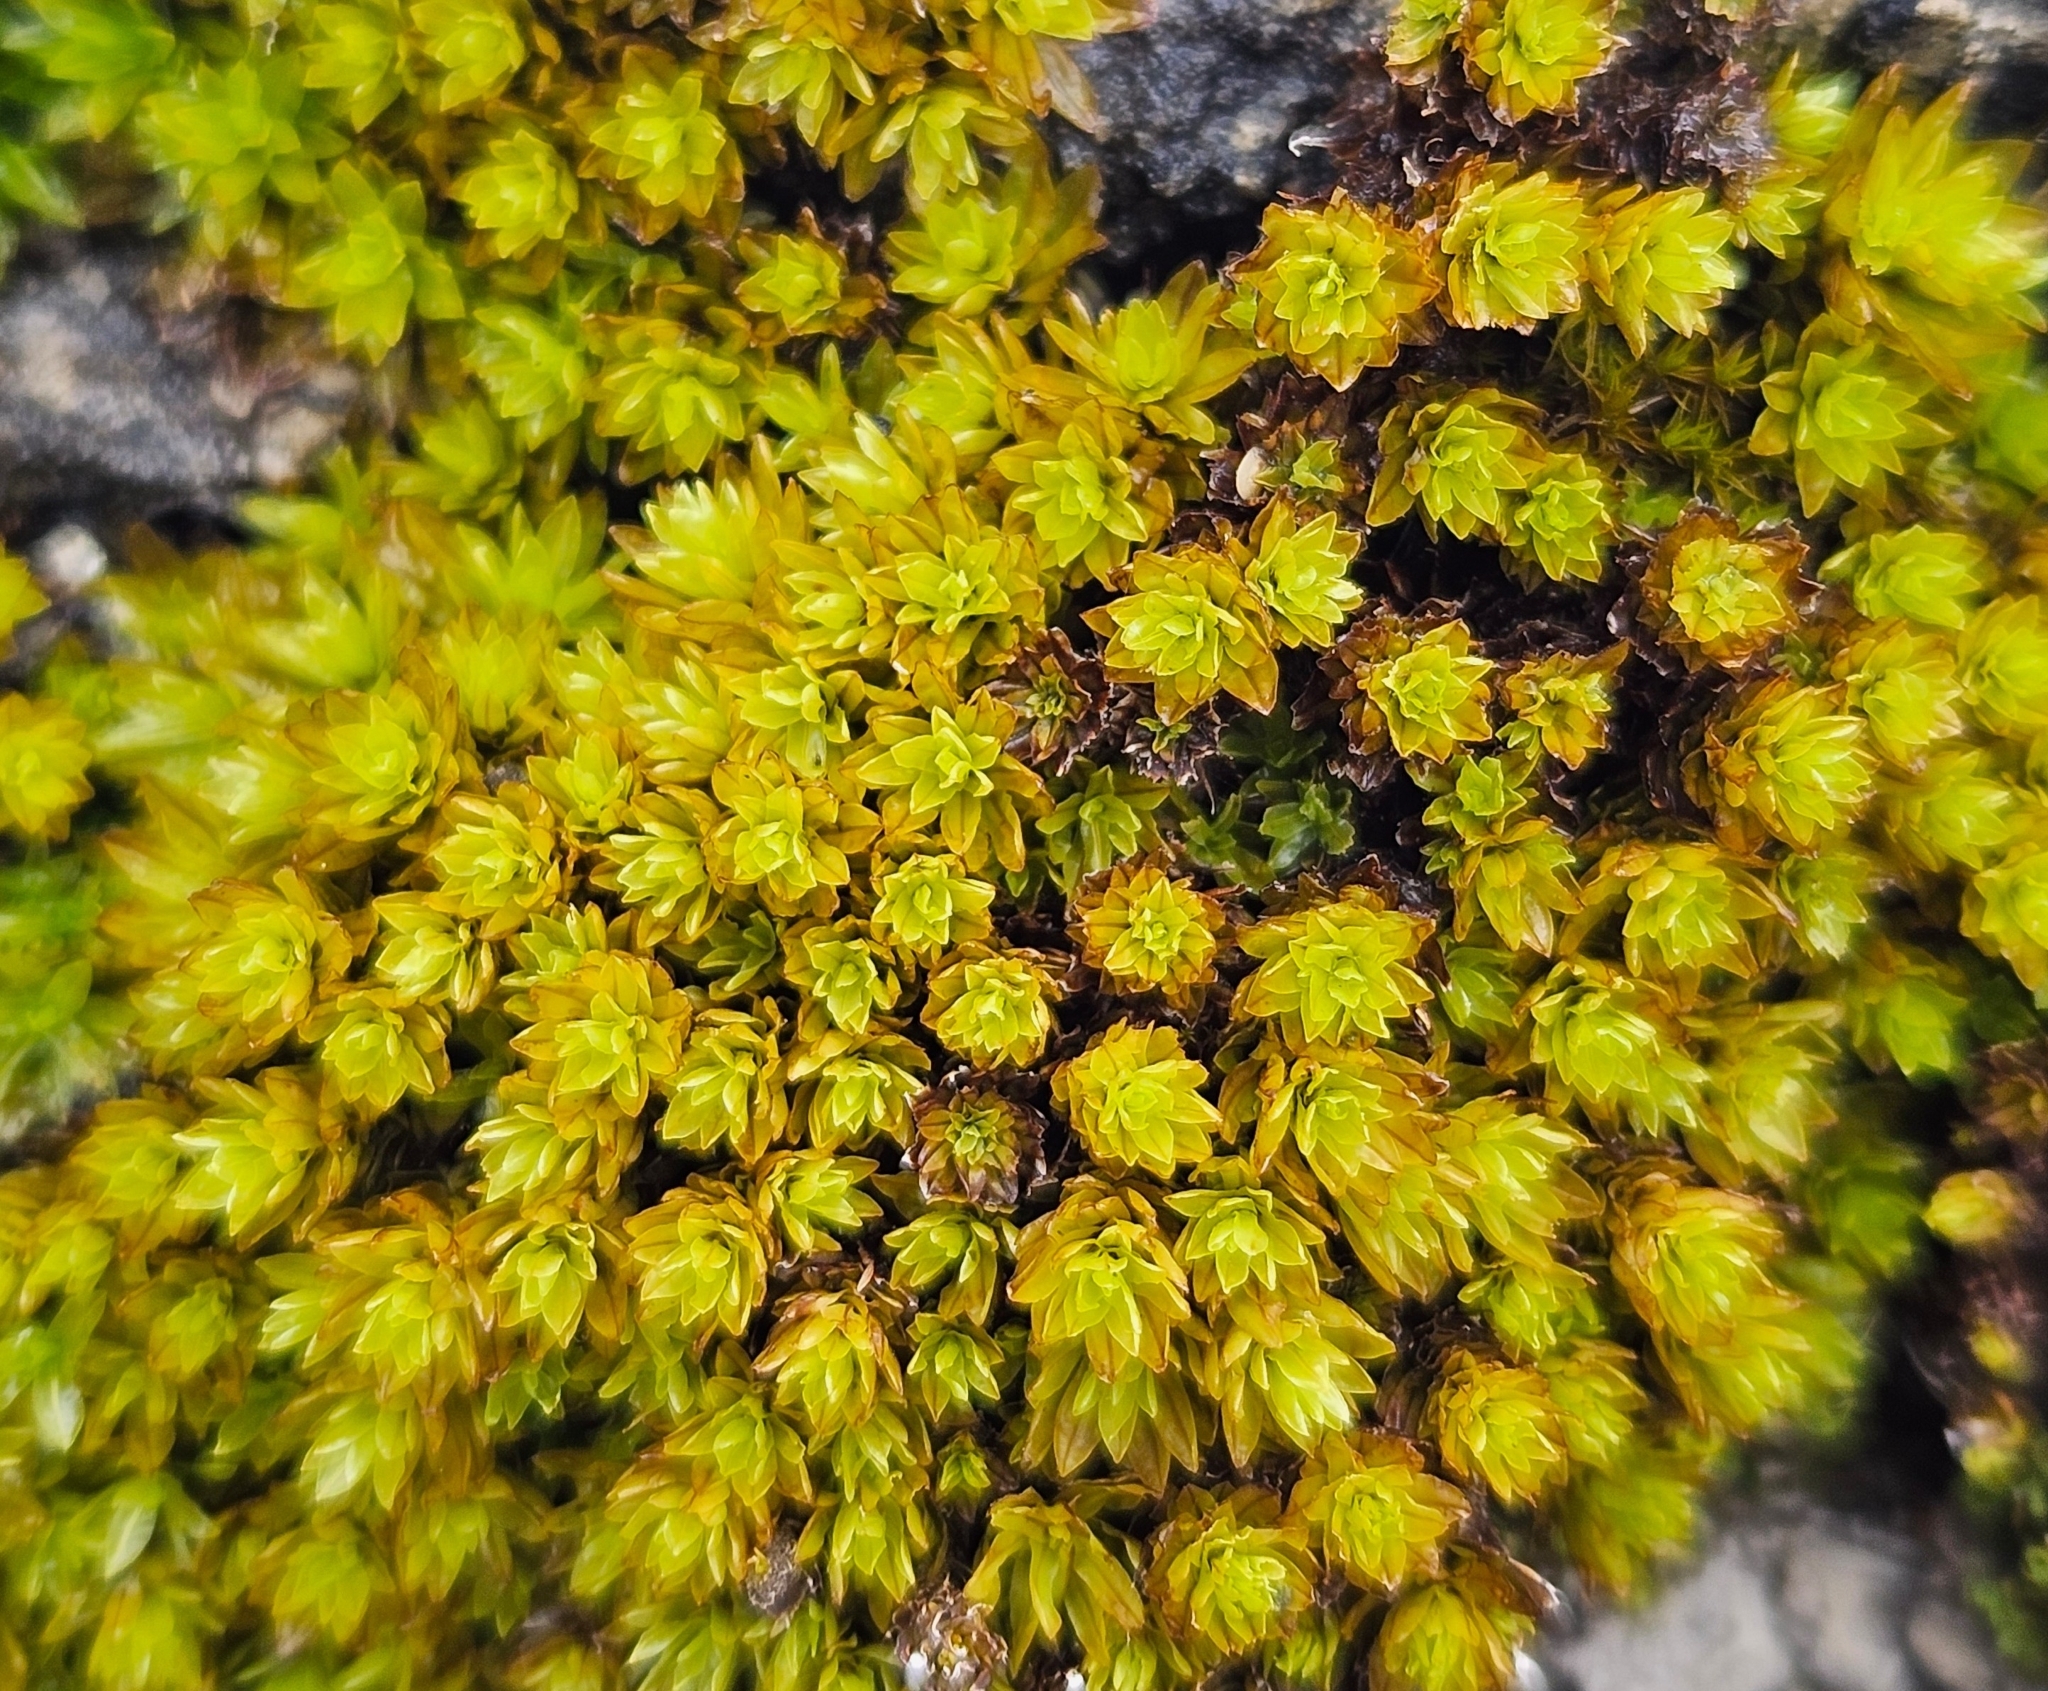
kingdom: Plantae
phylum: Bryophyta
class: Bryopsida
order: Encalyptales
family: Encalyptaceae
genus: Encalypta
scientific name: Encalypta streptocarpa
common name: Spiral extinguisher-moss
